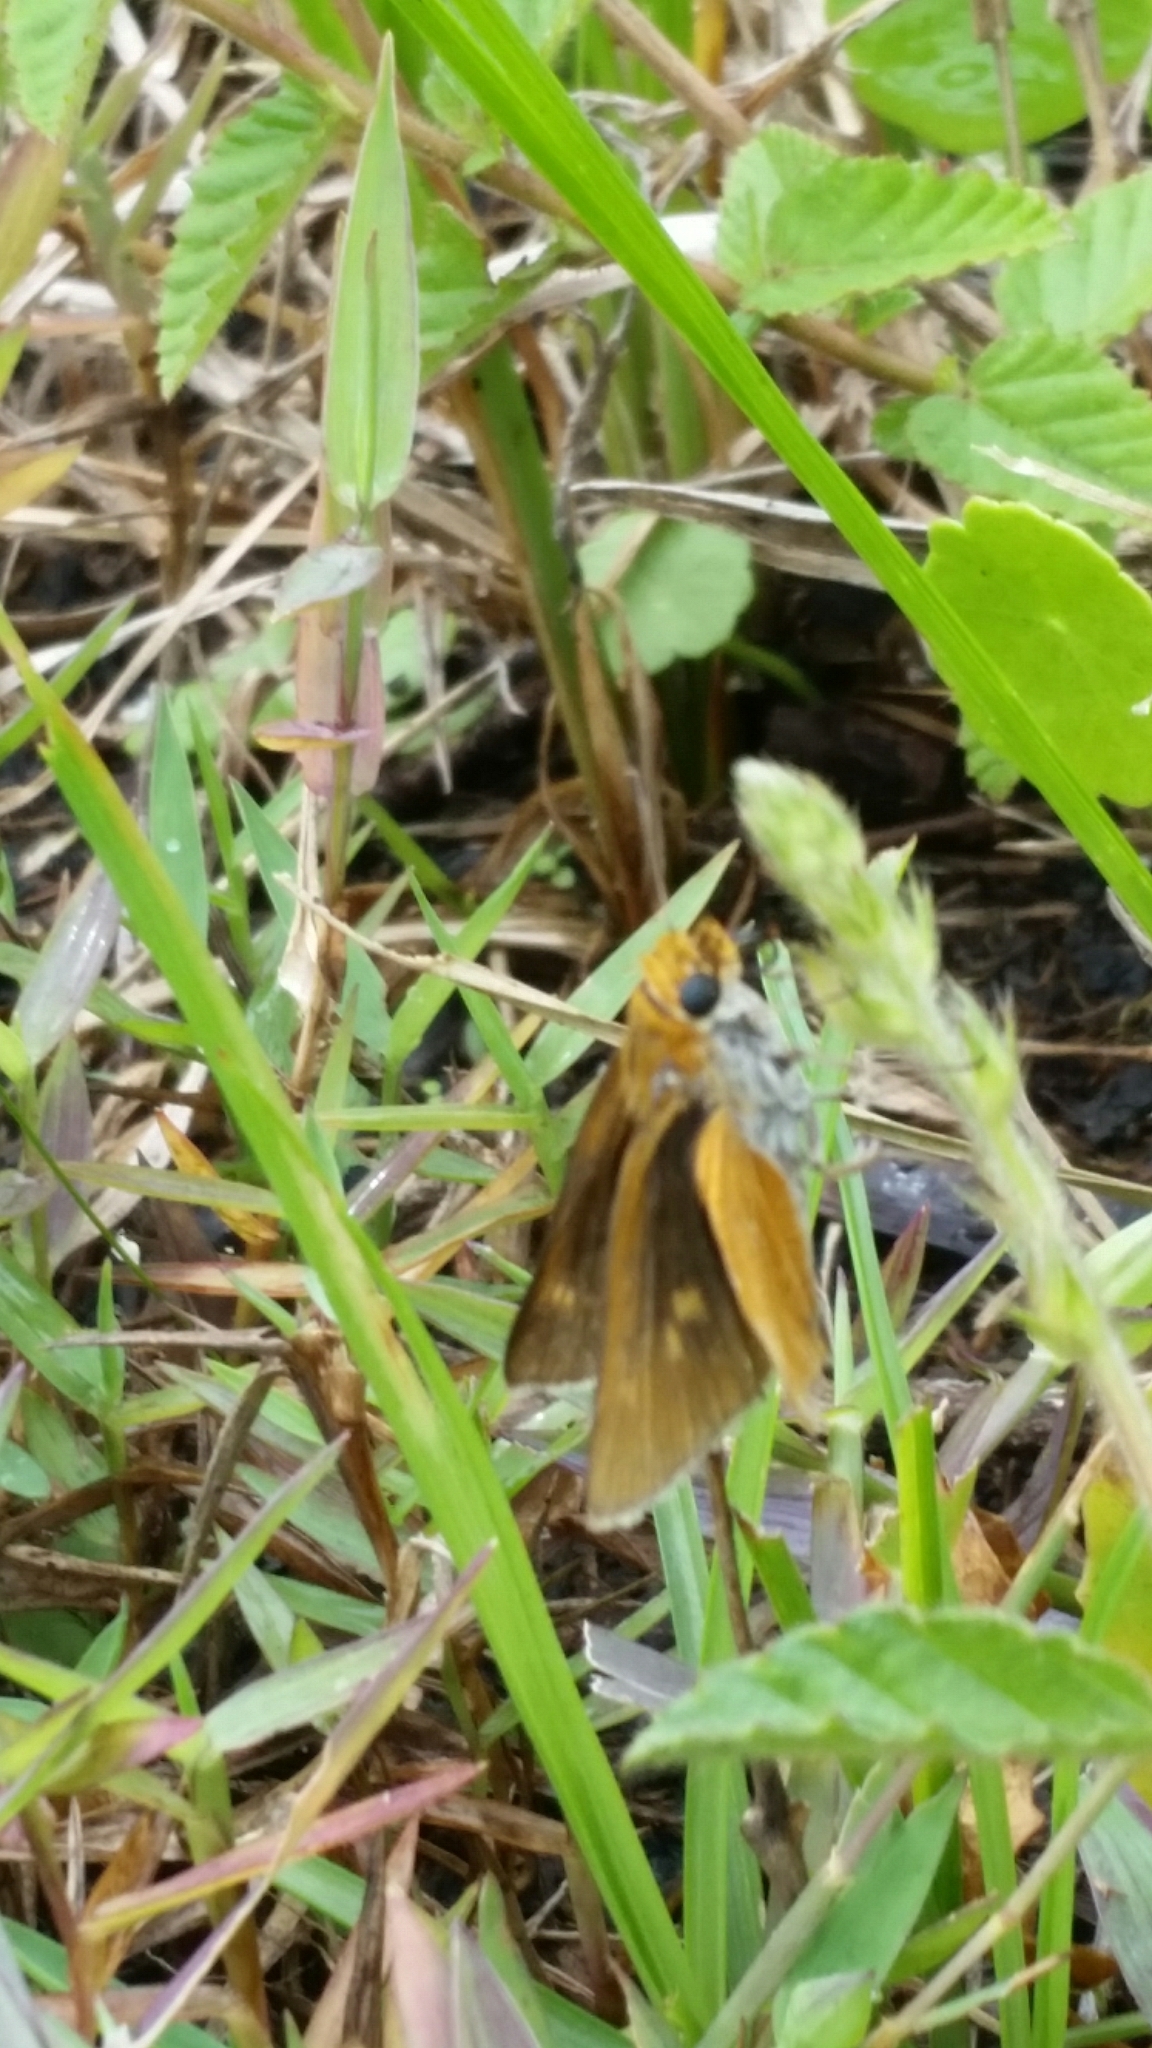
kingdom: Animalia
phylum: Arthropoda
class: Insecta
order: Lepidoptera
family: Hesperiidae
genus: Euphyes
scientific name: Euphyes arpa
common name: Palmetto skipper
